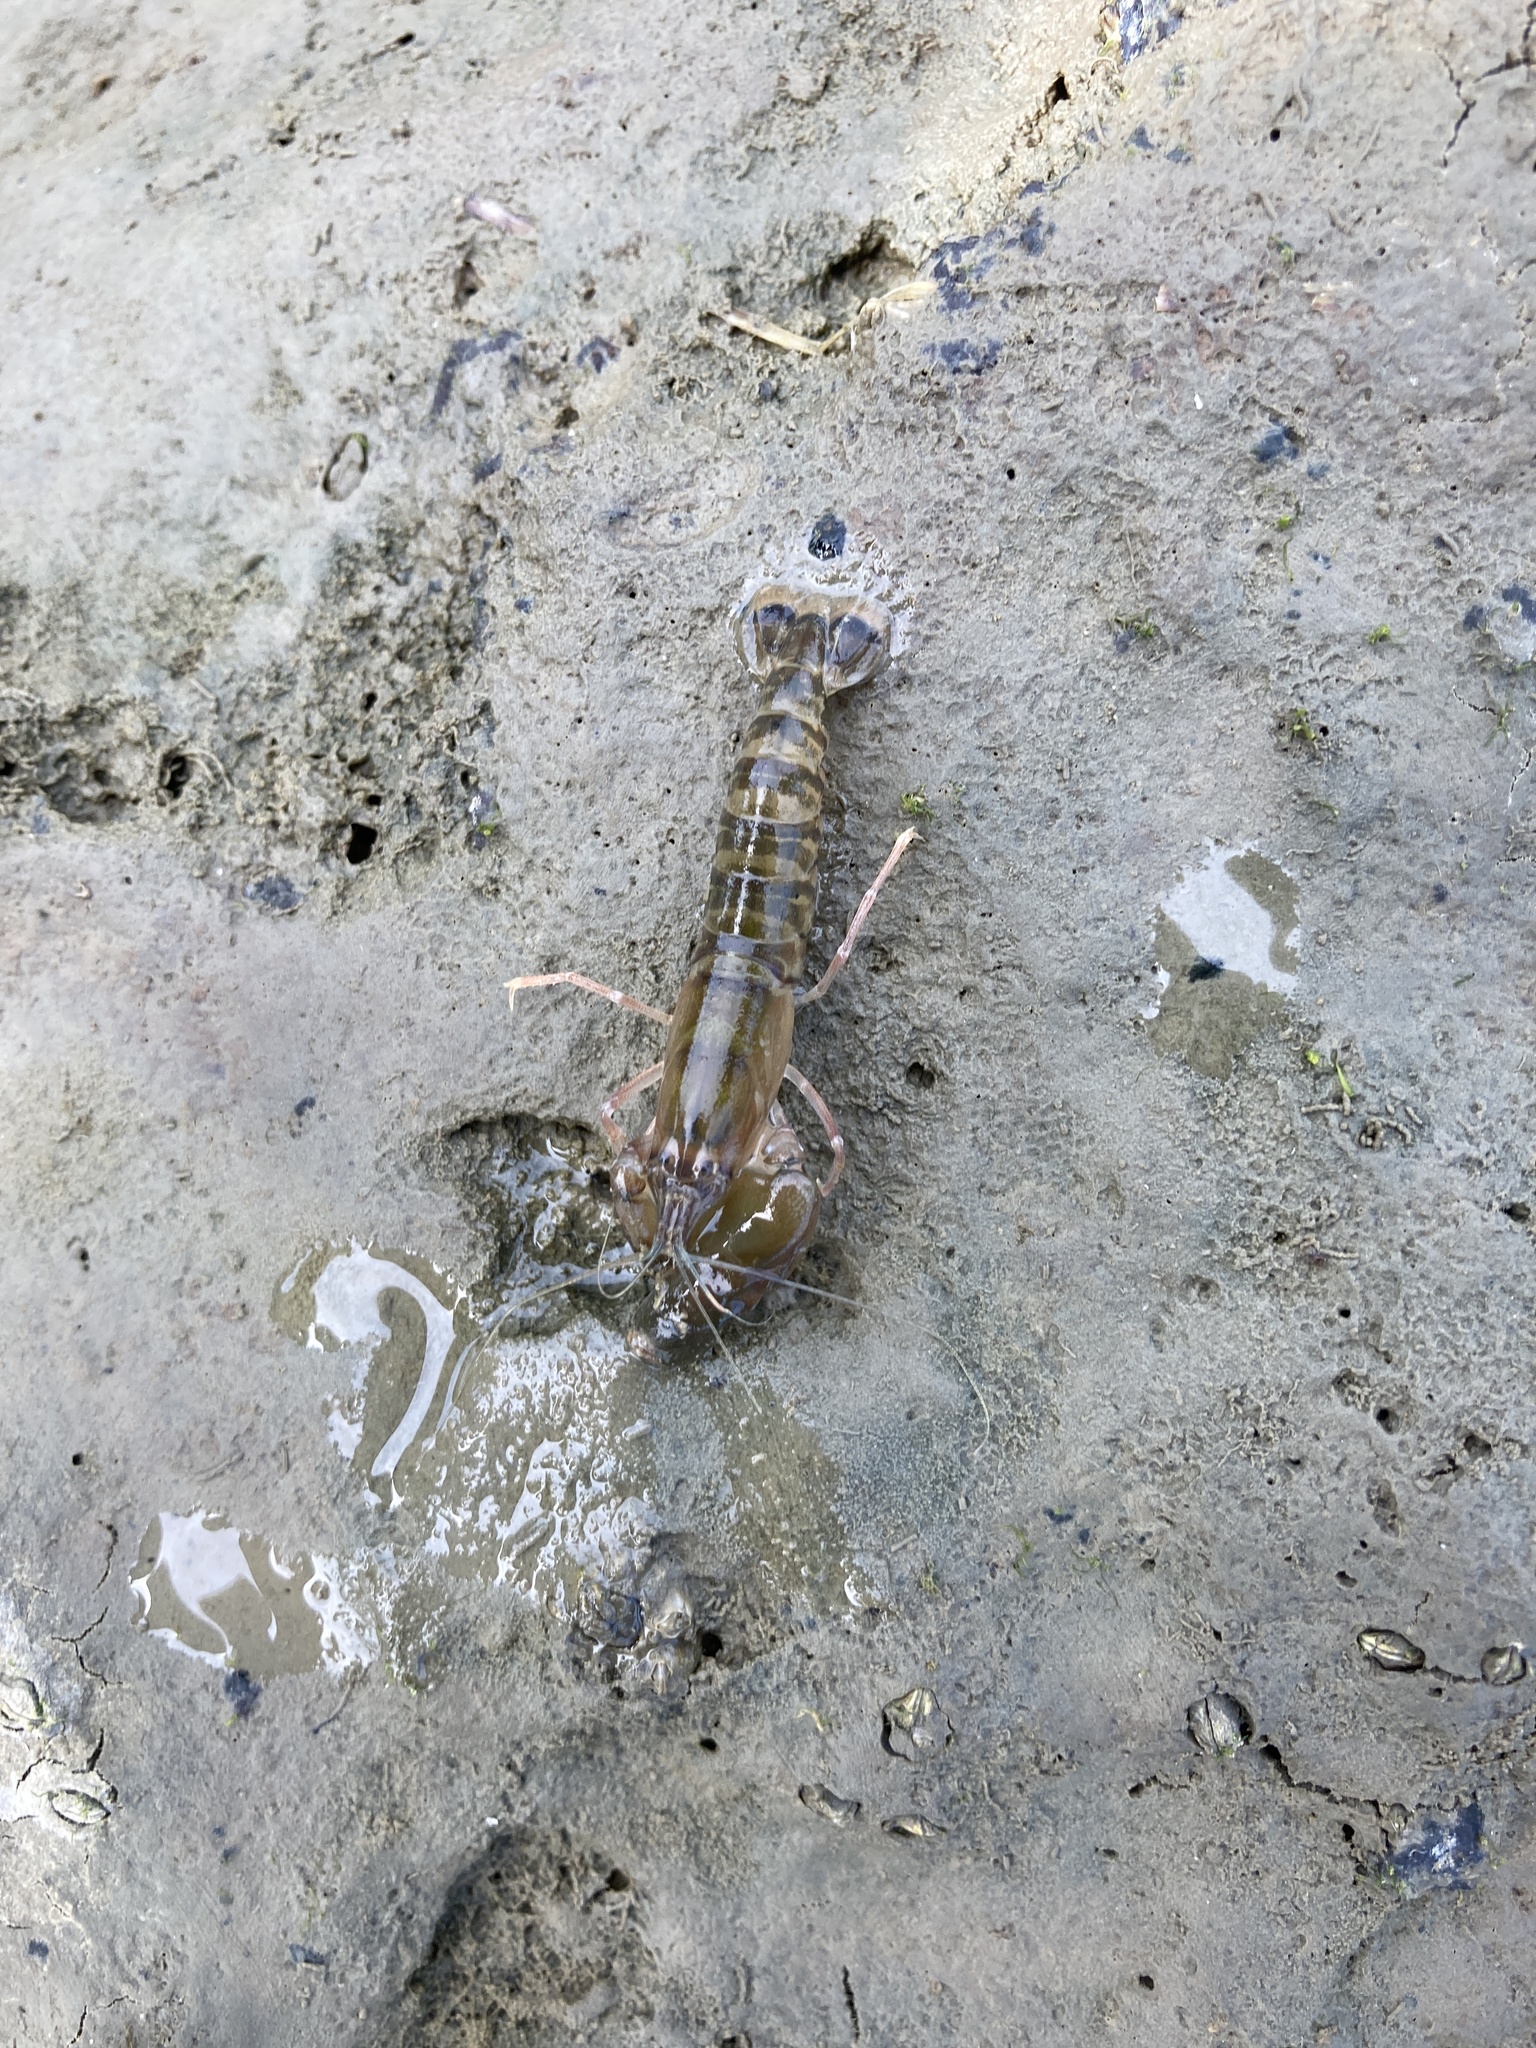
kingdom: Animalia
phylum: Arthropoda
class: Malacostraca
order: Decapoda
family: Alpheidae
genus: Alpheus
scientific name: Alpheus richardsoni
